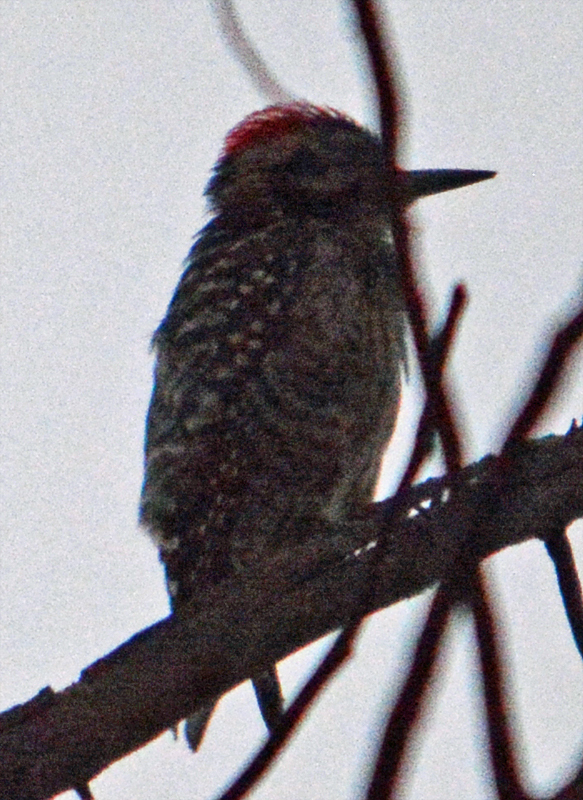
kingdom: Animalia
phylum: Chordata
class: Aves
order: Piciformes
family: Picidae
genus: Dryobates
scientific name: Dryobates scalaris
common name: Ladder-backed woodpecker
